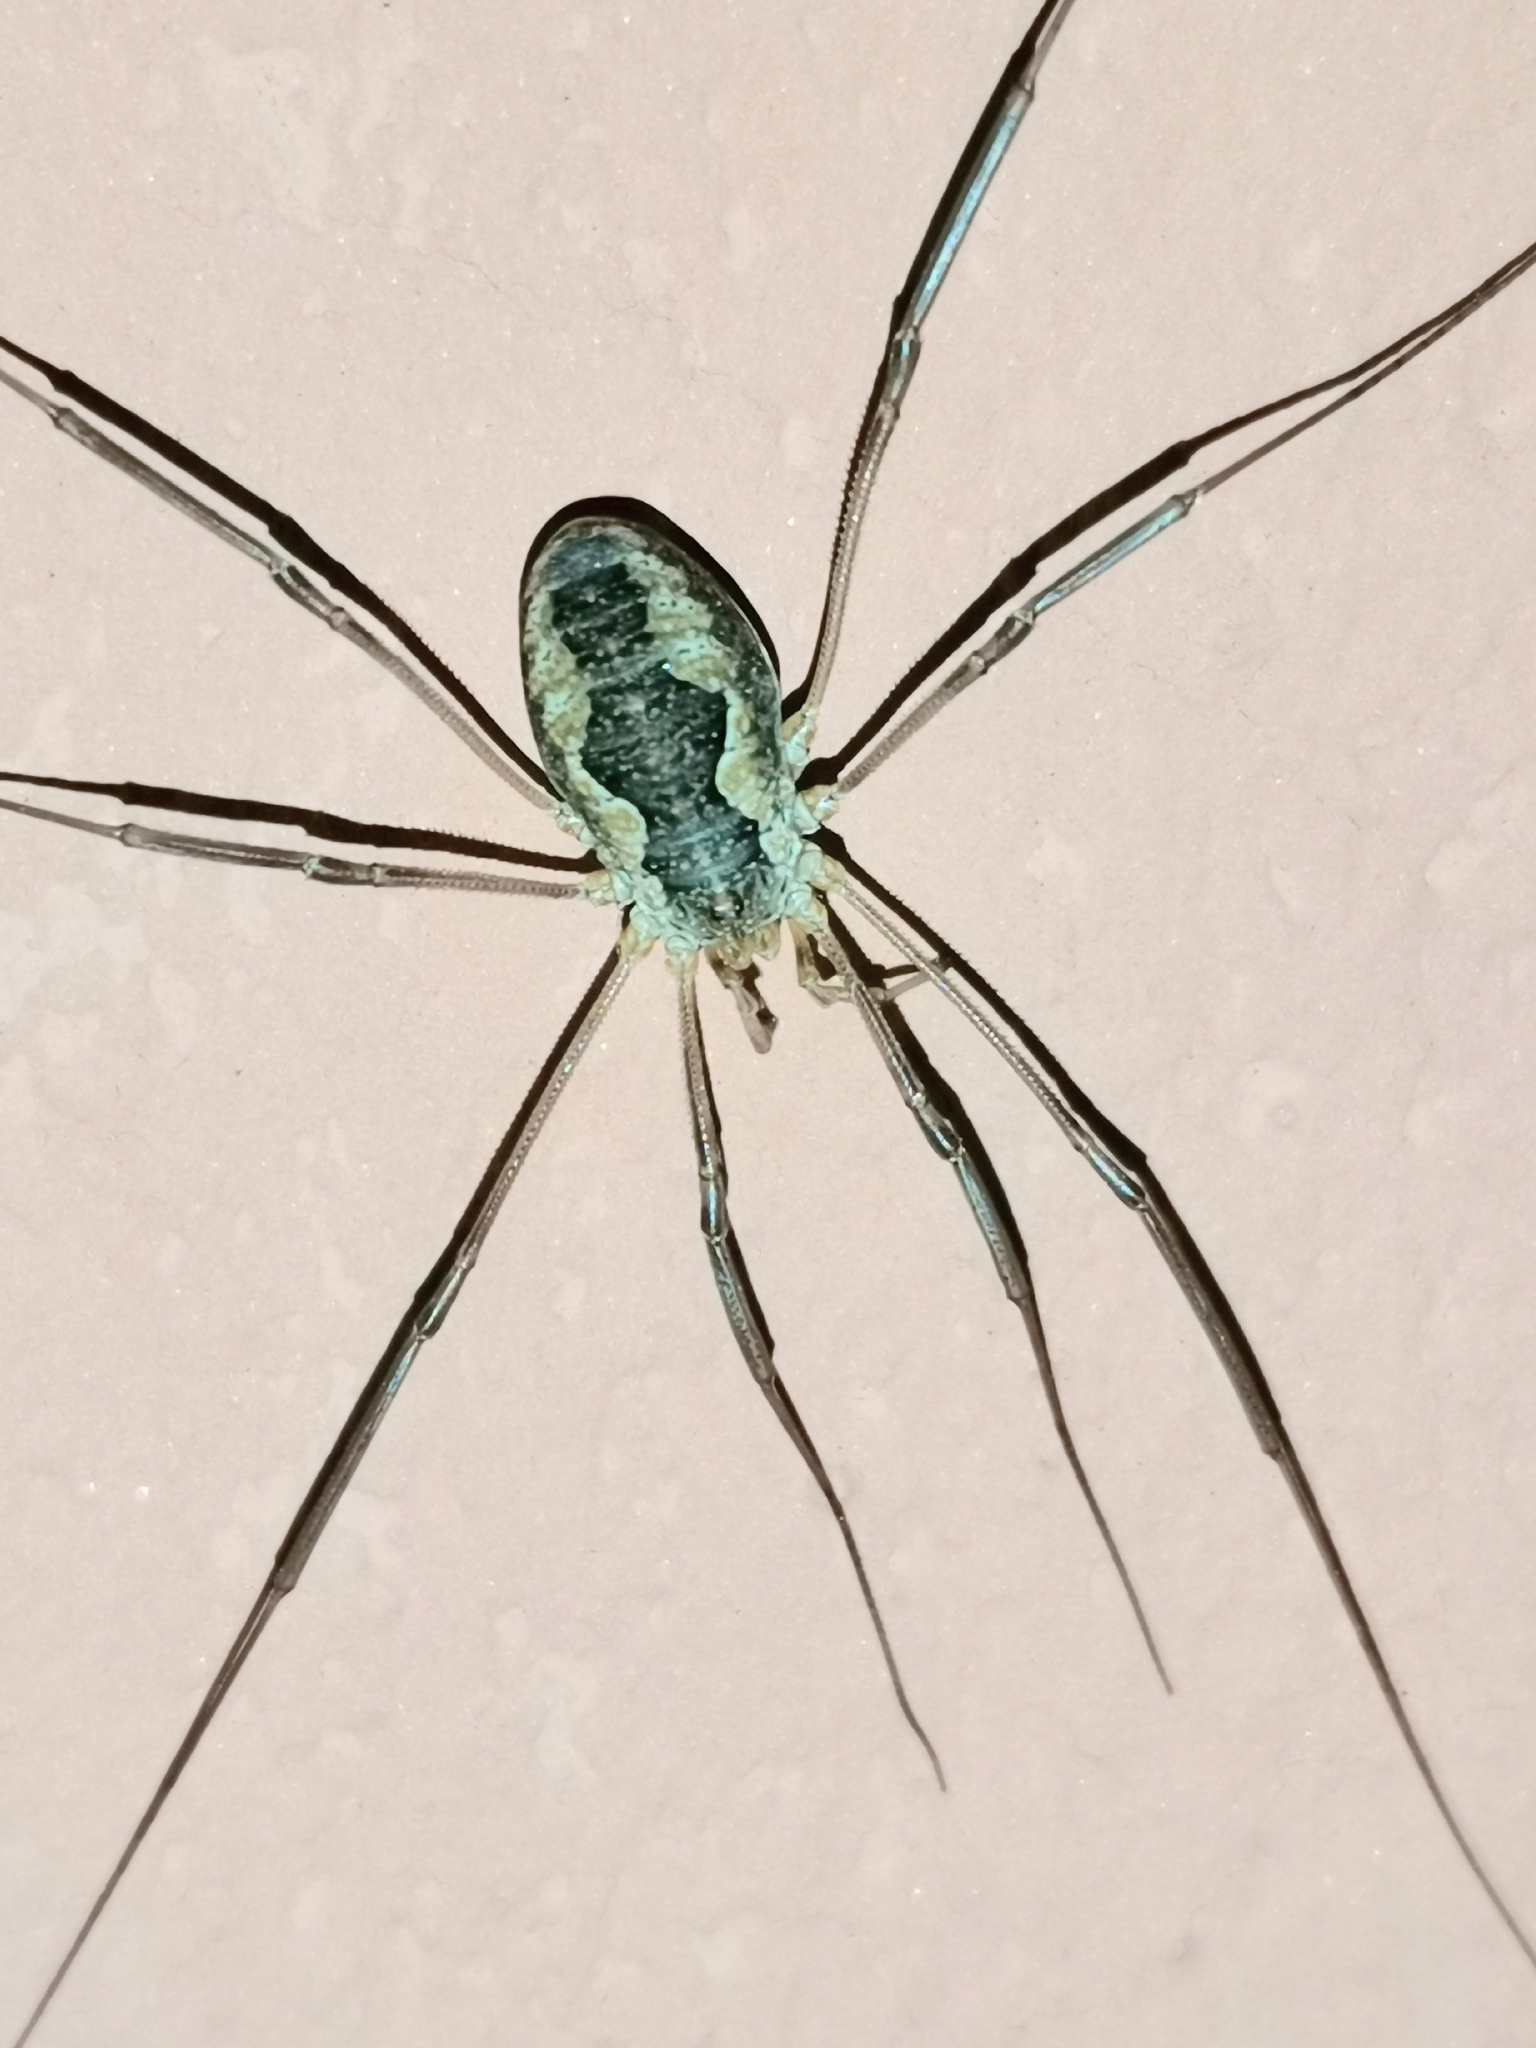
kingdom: Animalia
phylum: Arthropoda
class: Arachnida
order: Opiliones
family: Phalangiidae
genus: Phalangium
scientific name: Phalangium opilio
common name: Daddy longleg
